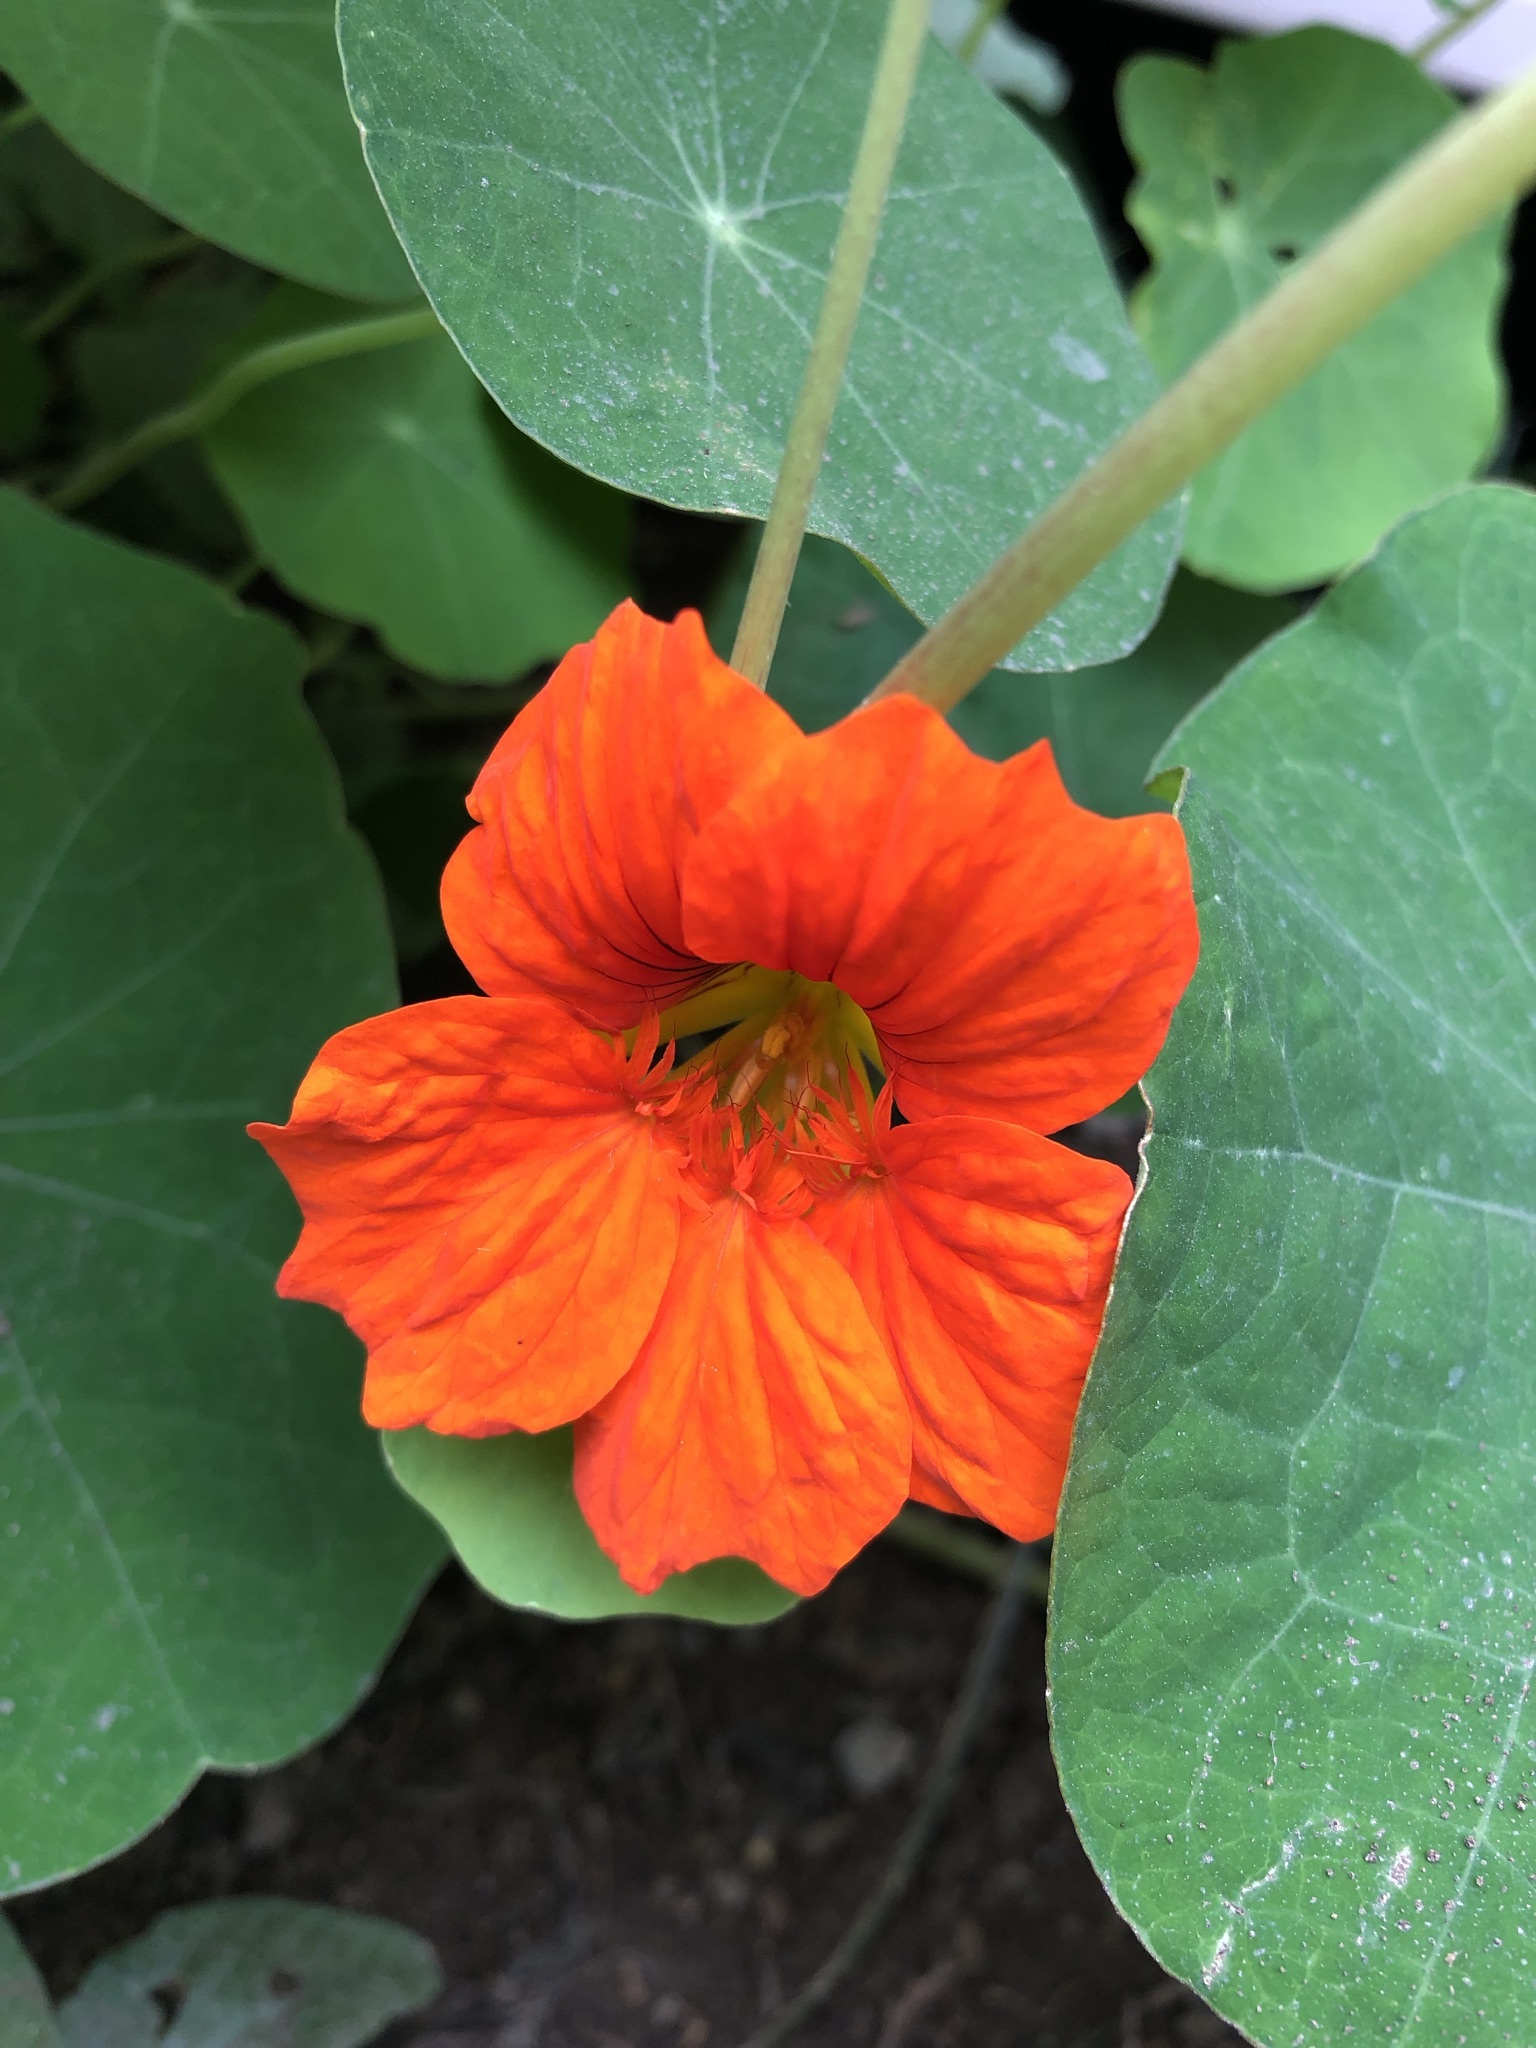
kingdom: Plantae
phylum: Tracheophyta
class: Magnoliopsida
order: Brassicales
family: Tropaeolaceae
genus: Tropaeolum
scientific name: Tropaeolum majus
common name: Nasturtium
